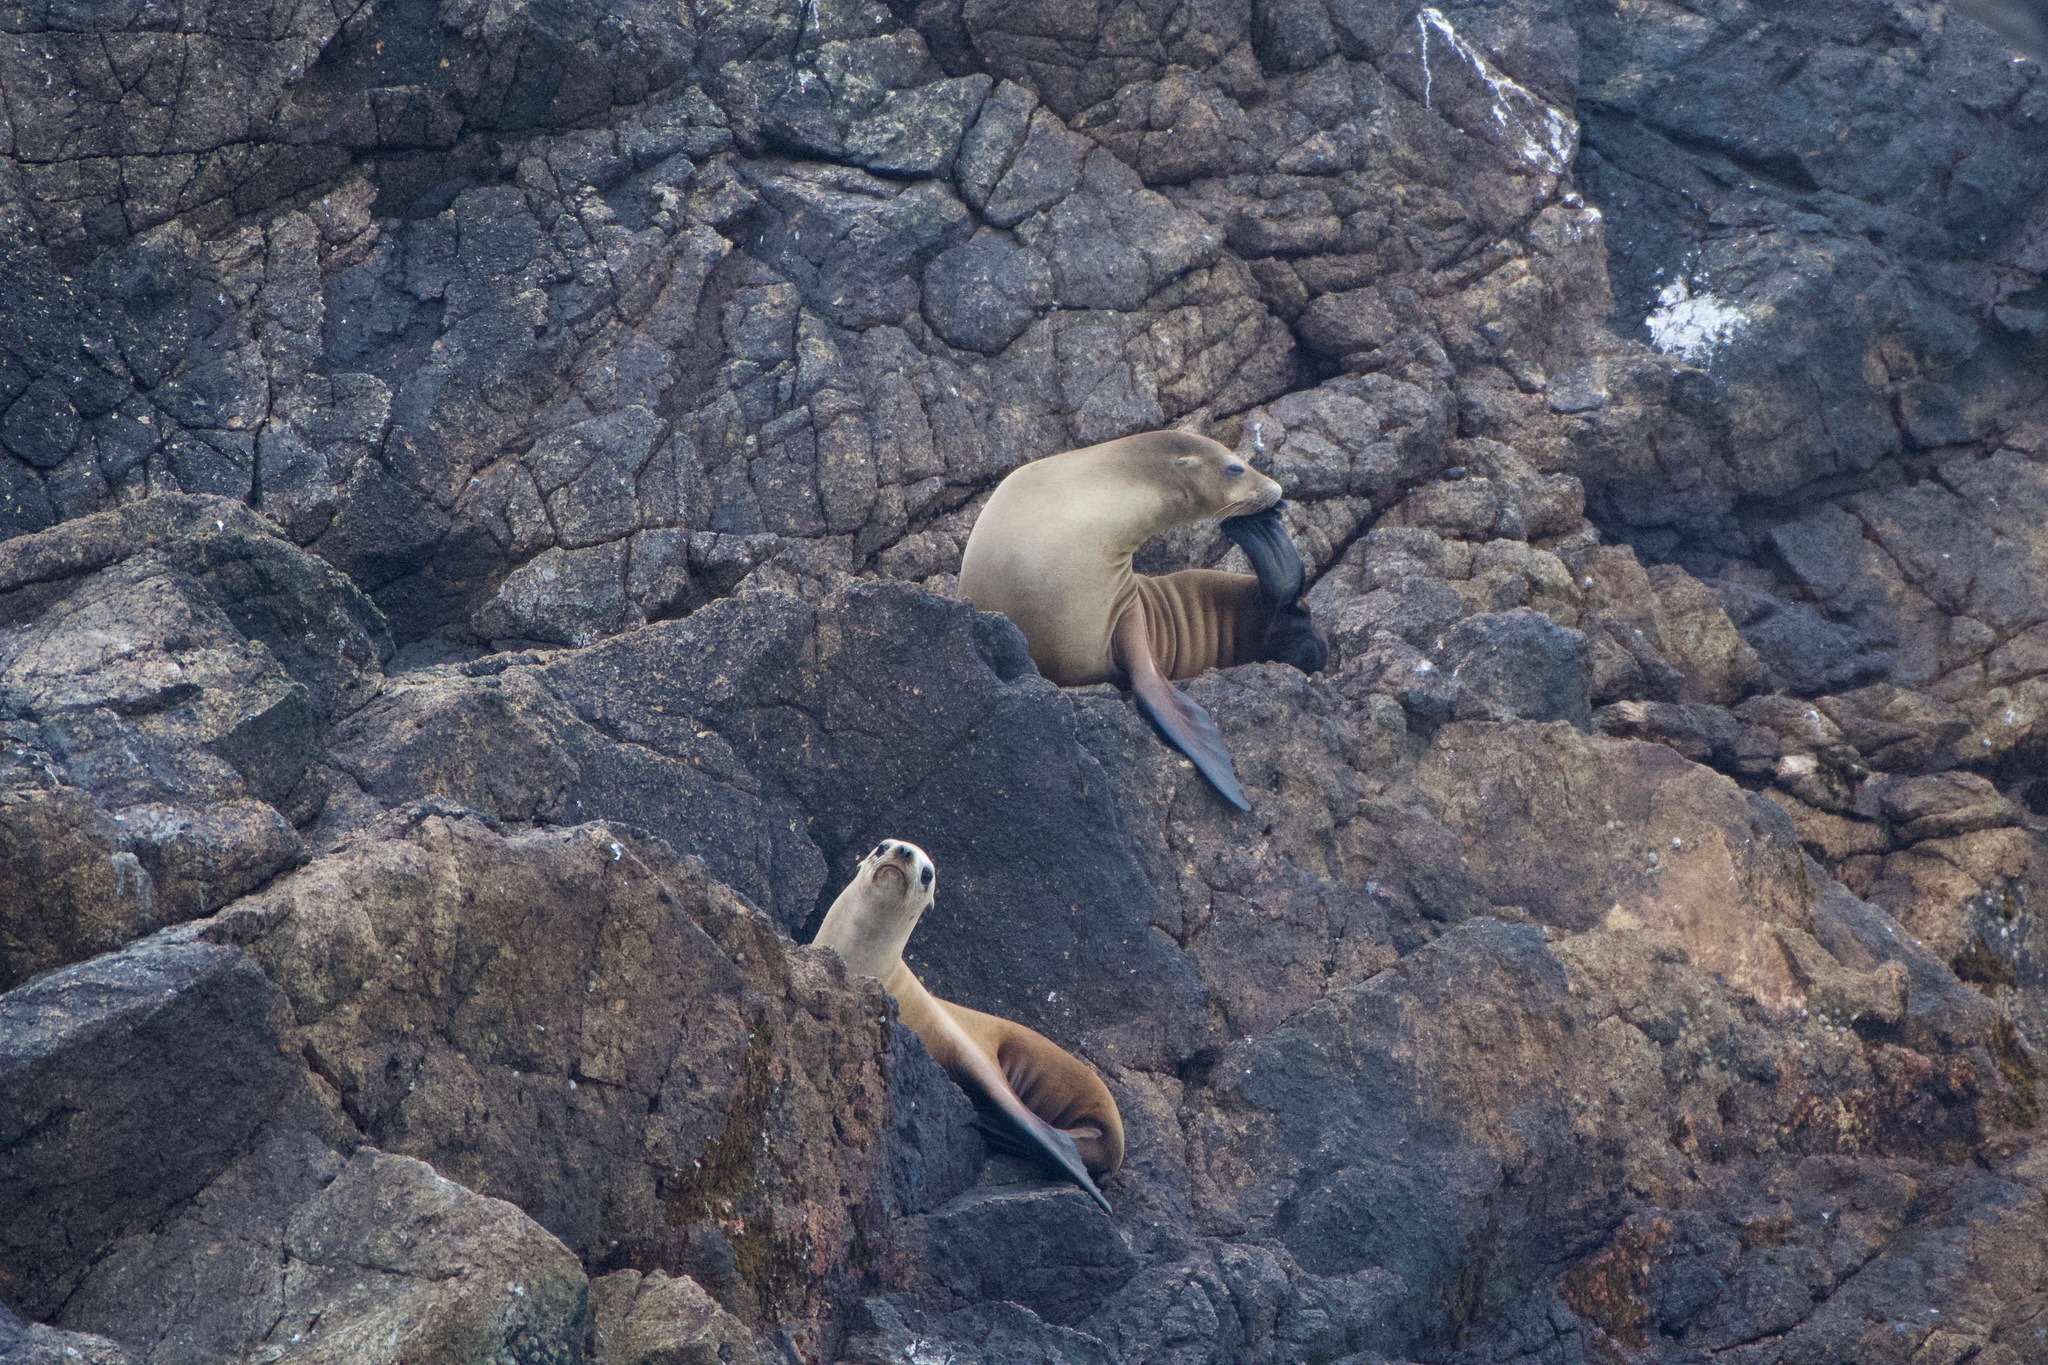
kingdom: Animalia
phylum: Chordata
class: Mammalia
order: Carnivora
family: Otariidae
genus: Zalophus
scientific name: Zalophus californianus
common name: California sea lion
